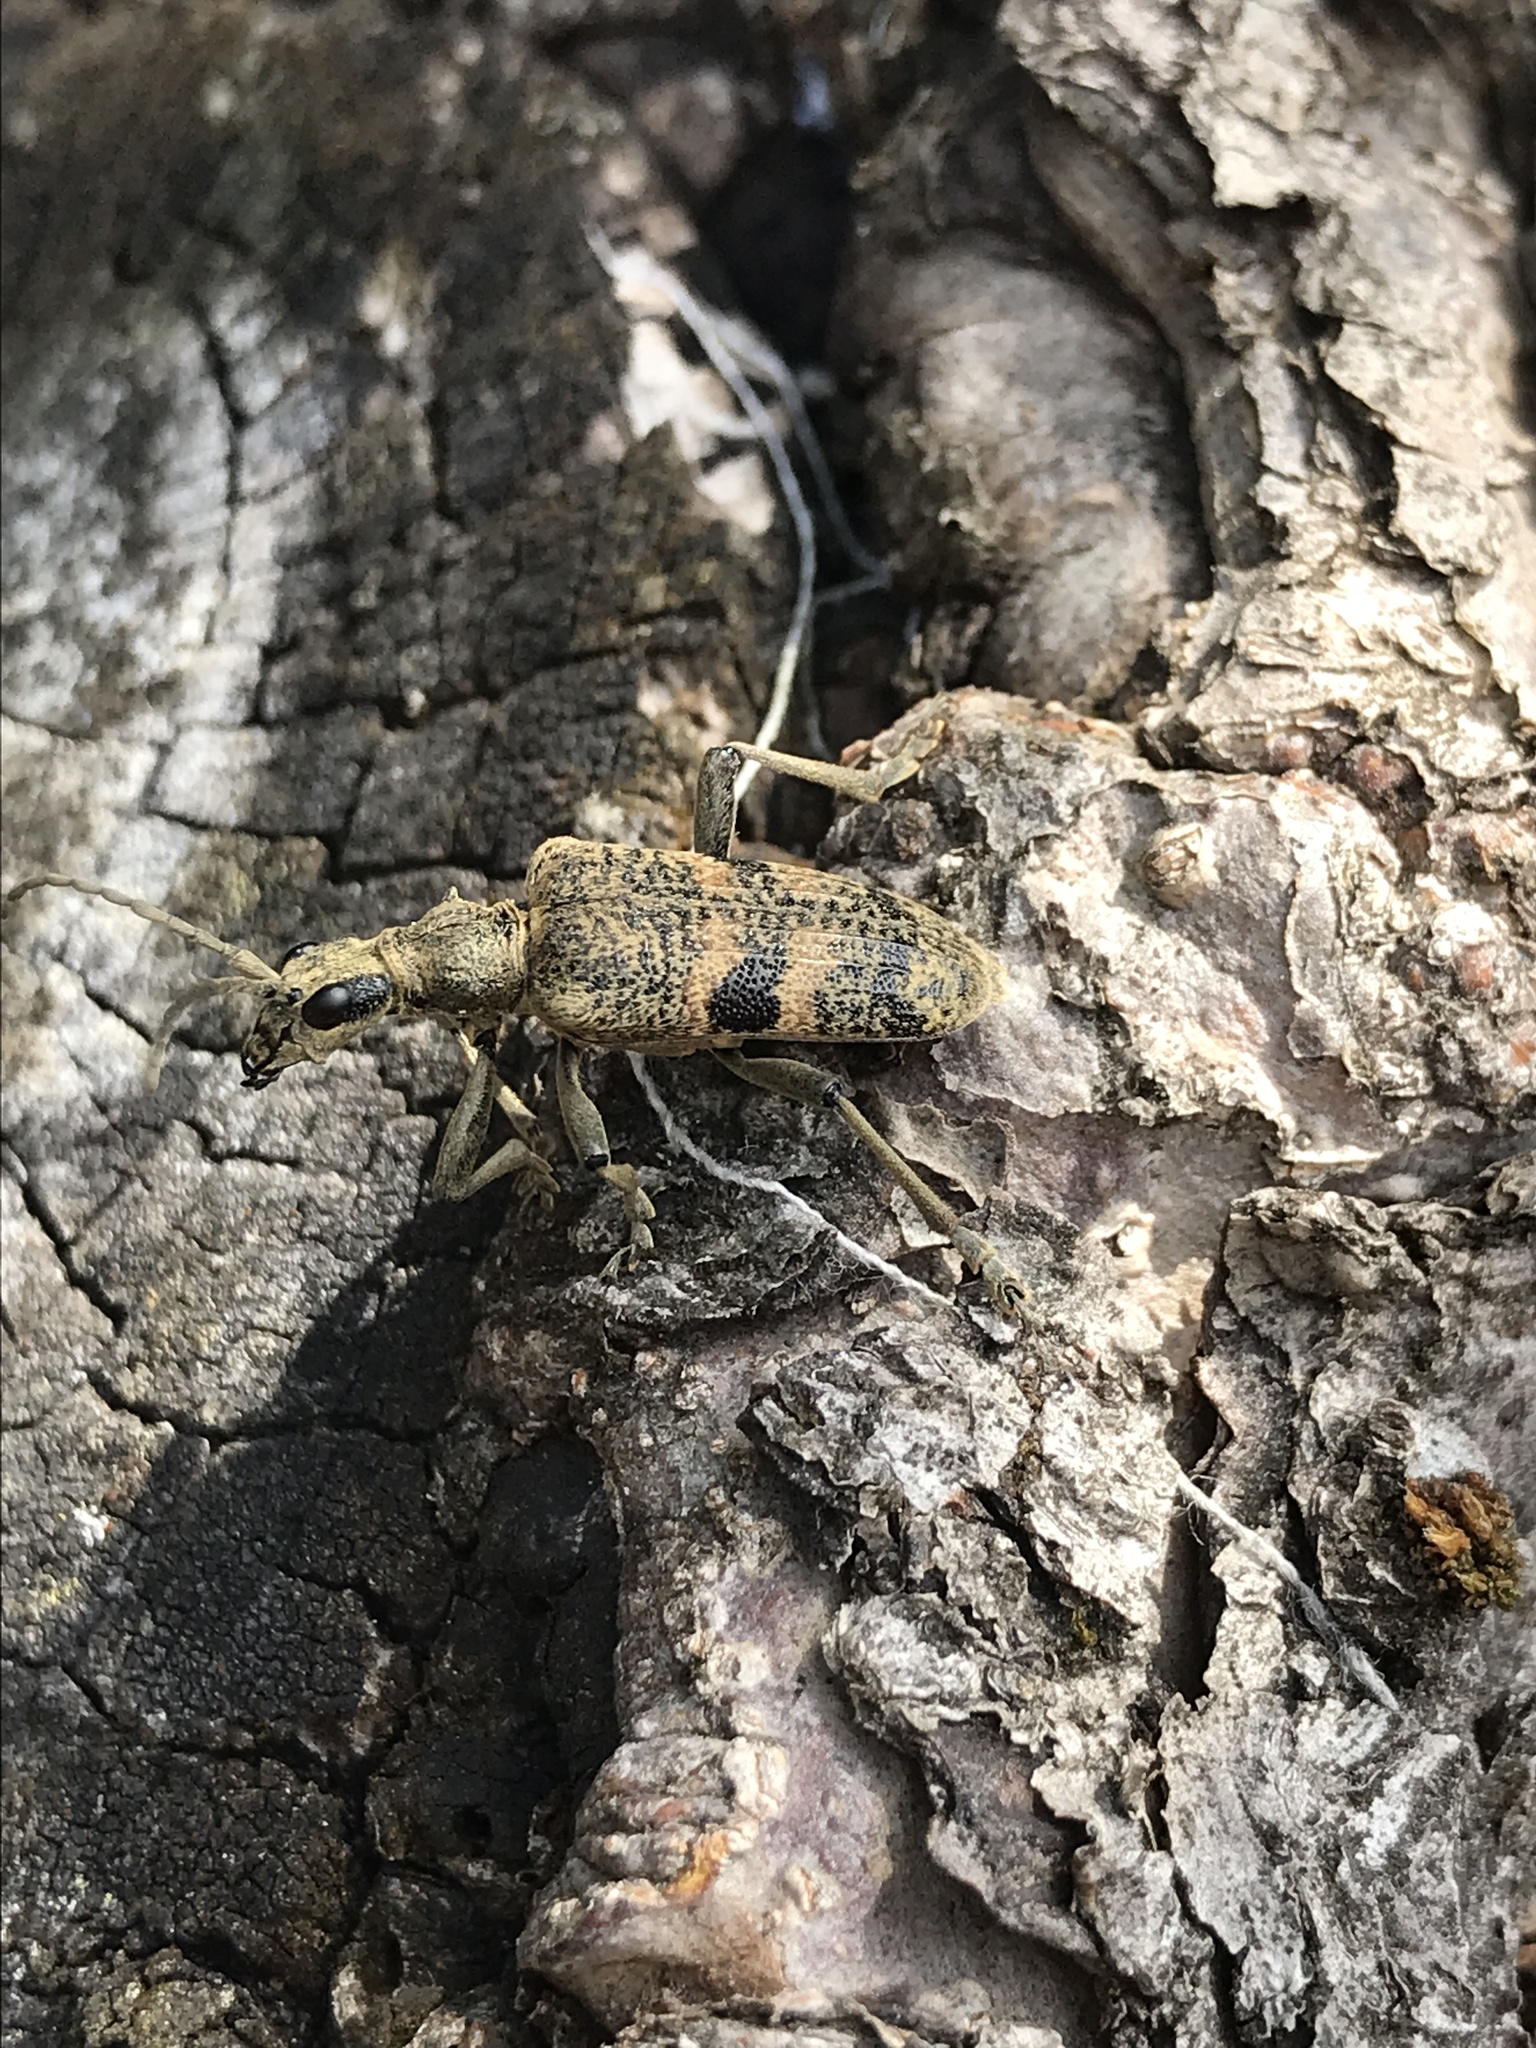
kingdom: Animalia
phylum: Arthropoda
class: Insecta
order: Coleoptera
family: Cerambycidae
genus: Rhagium
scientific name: Rhagium mordax
